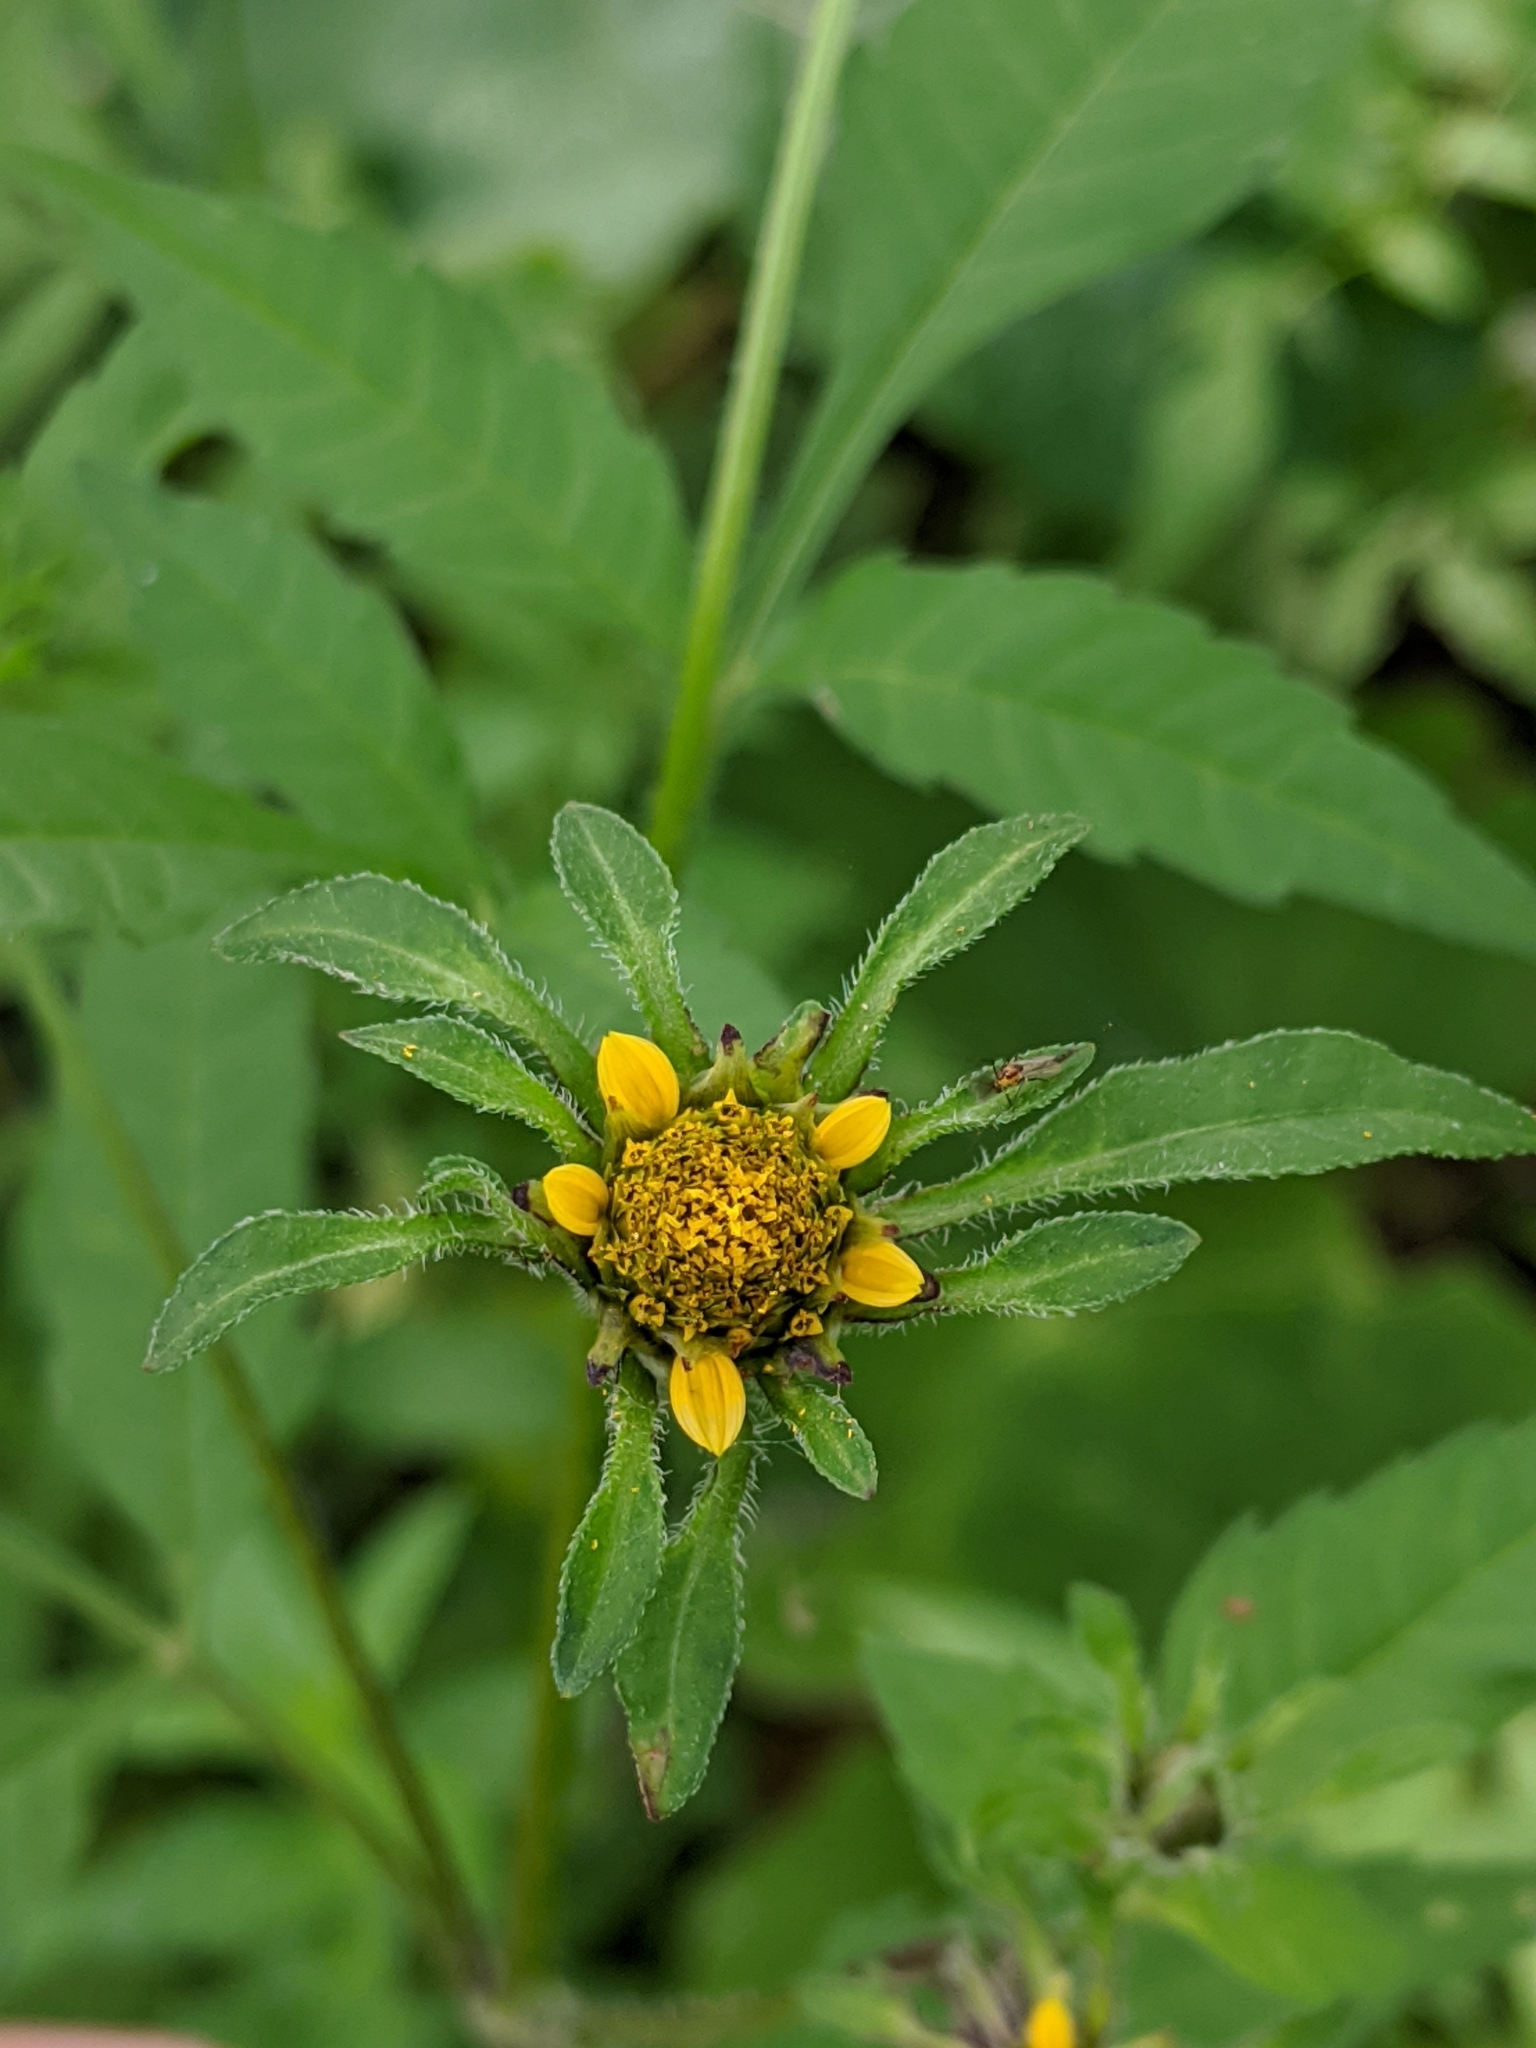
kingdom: Plantae
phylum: Tracheophyta
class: Magnoliopsida
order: Asterales
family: Asteraceae
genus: Bidens
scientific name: Bidens frondosa
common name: Beggarticks
